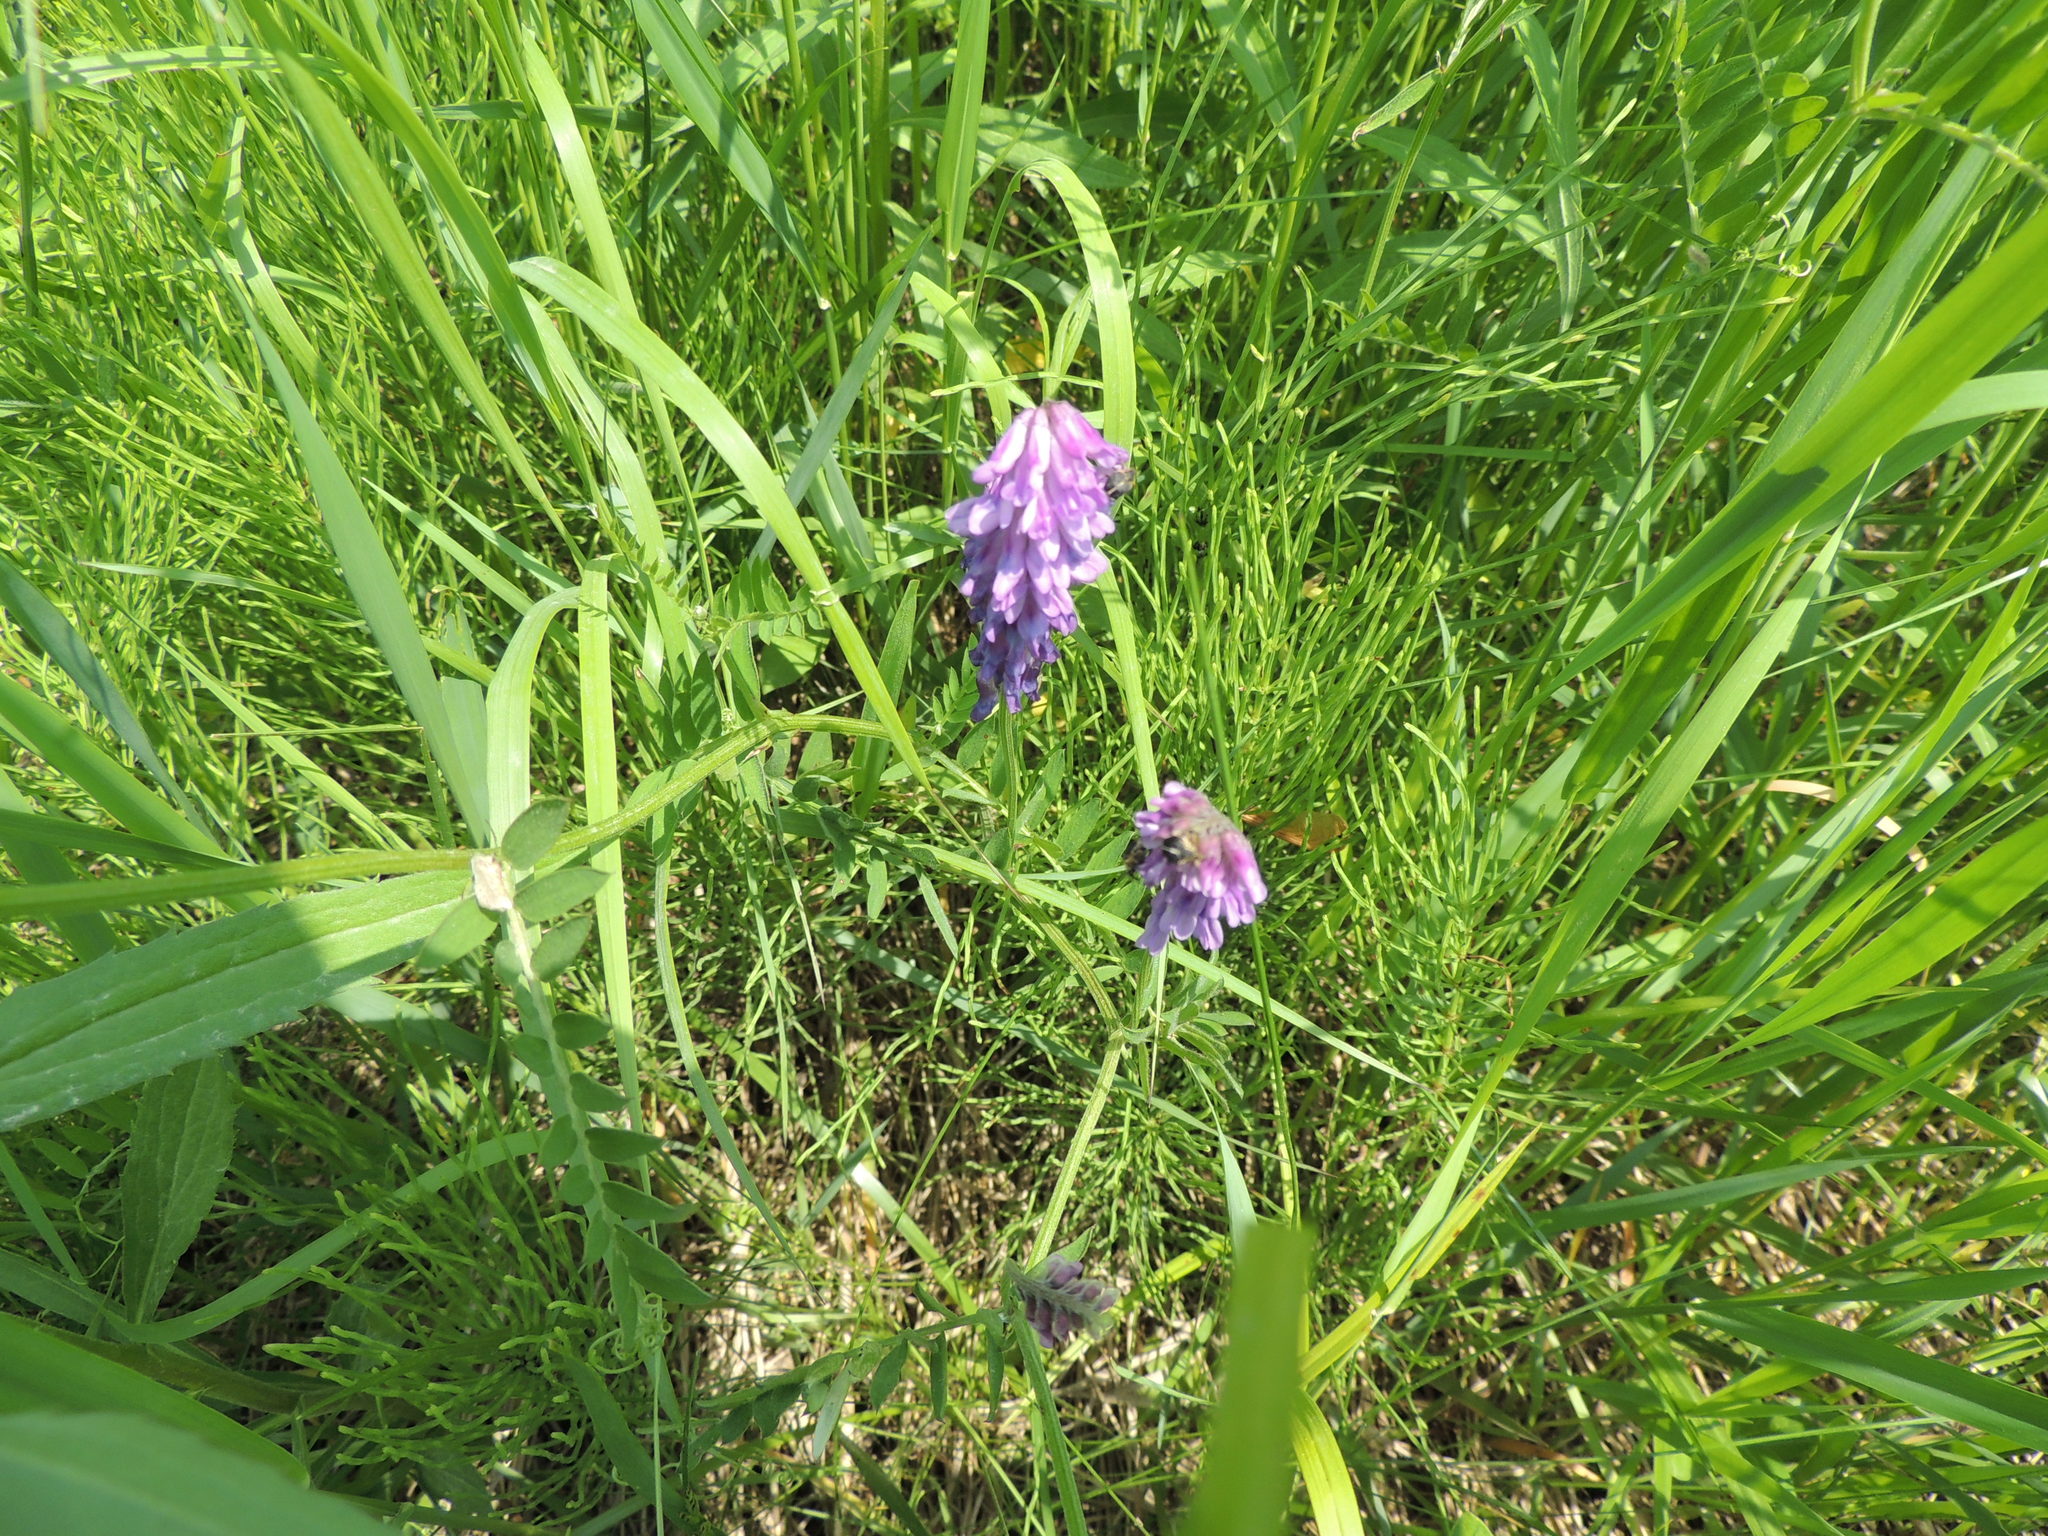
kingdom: Plantae
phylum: Tracheophyta
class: Magnoliopsida
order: Fabales
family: Fabaceae
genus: Vicia
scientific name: Vicia cracca
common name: Bird vetch
